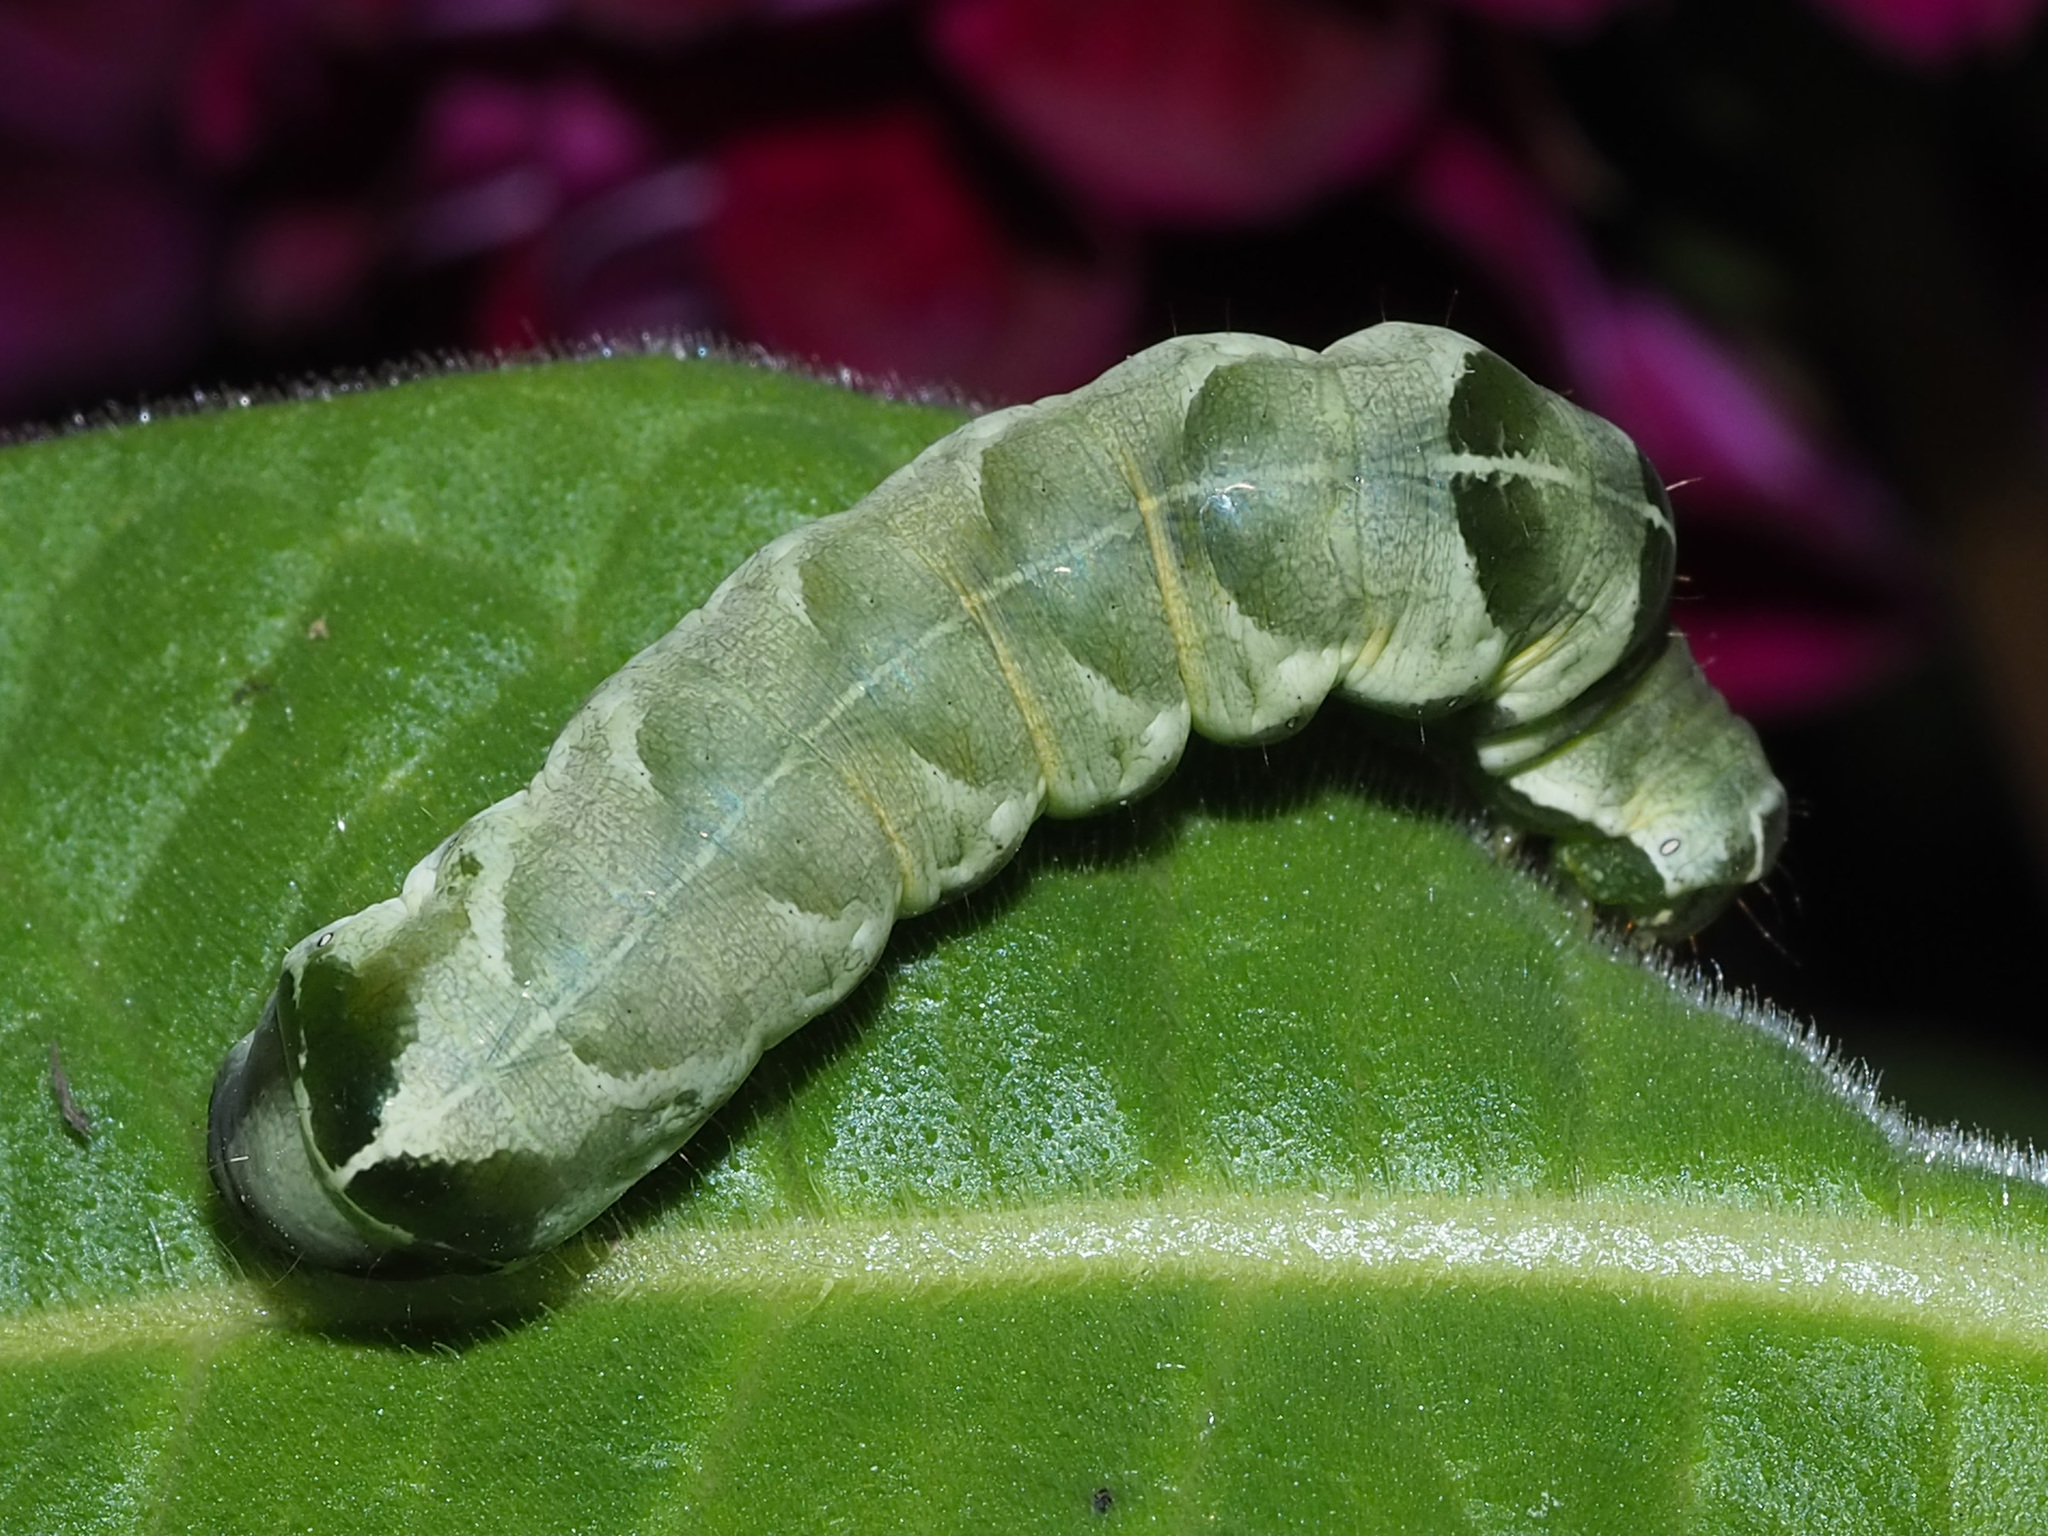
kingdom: Animalia
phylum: Arthropoda
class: Insecta
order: Lepidoptera
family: Noctuidae
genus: Melanchra
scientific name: Melanchra adjuncta
